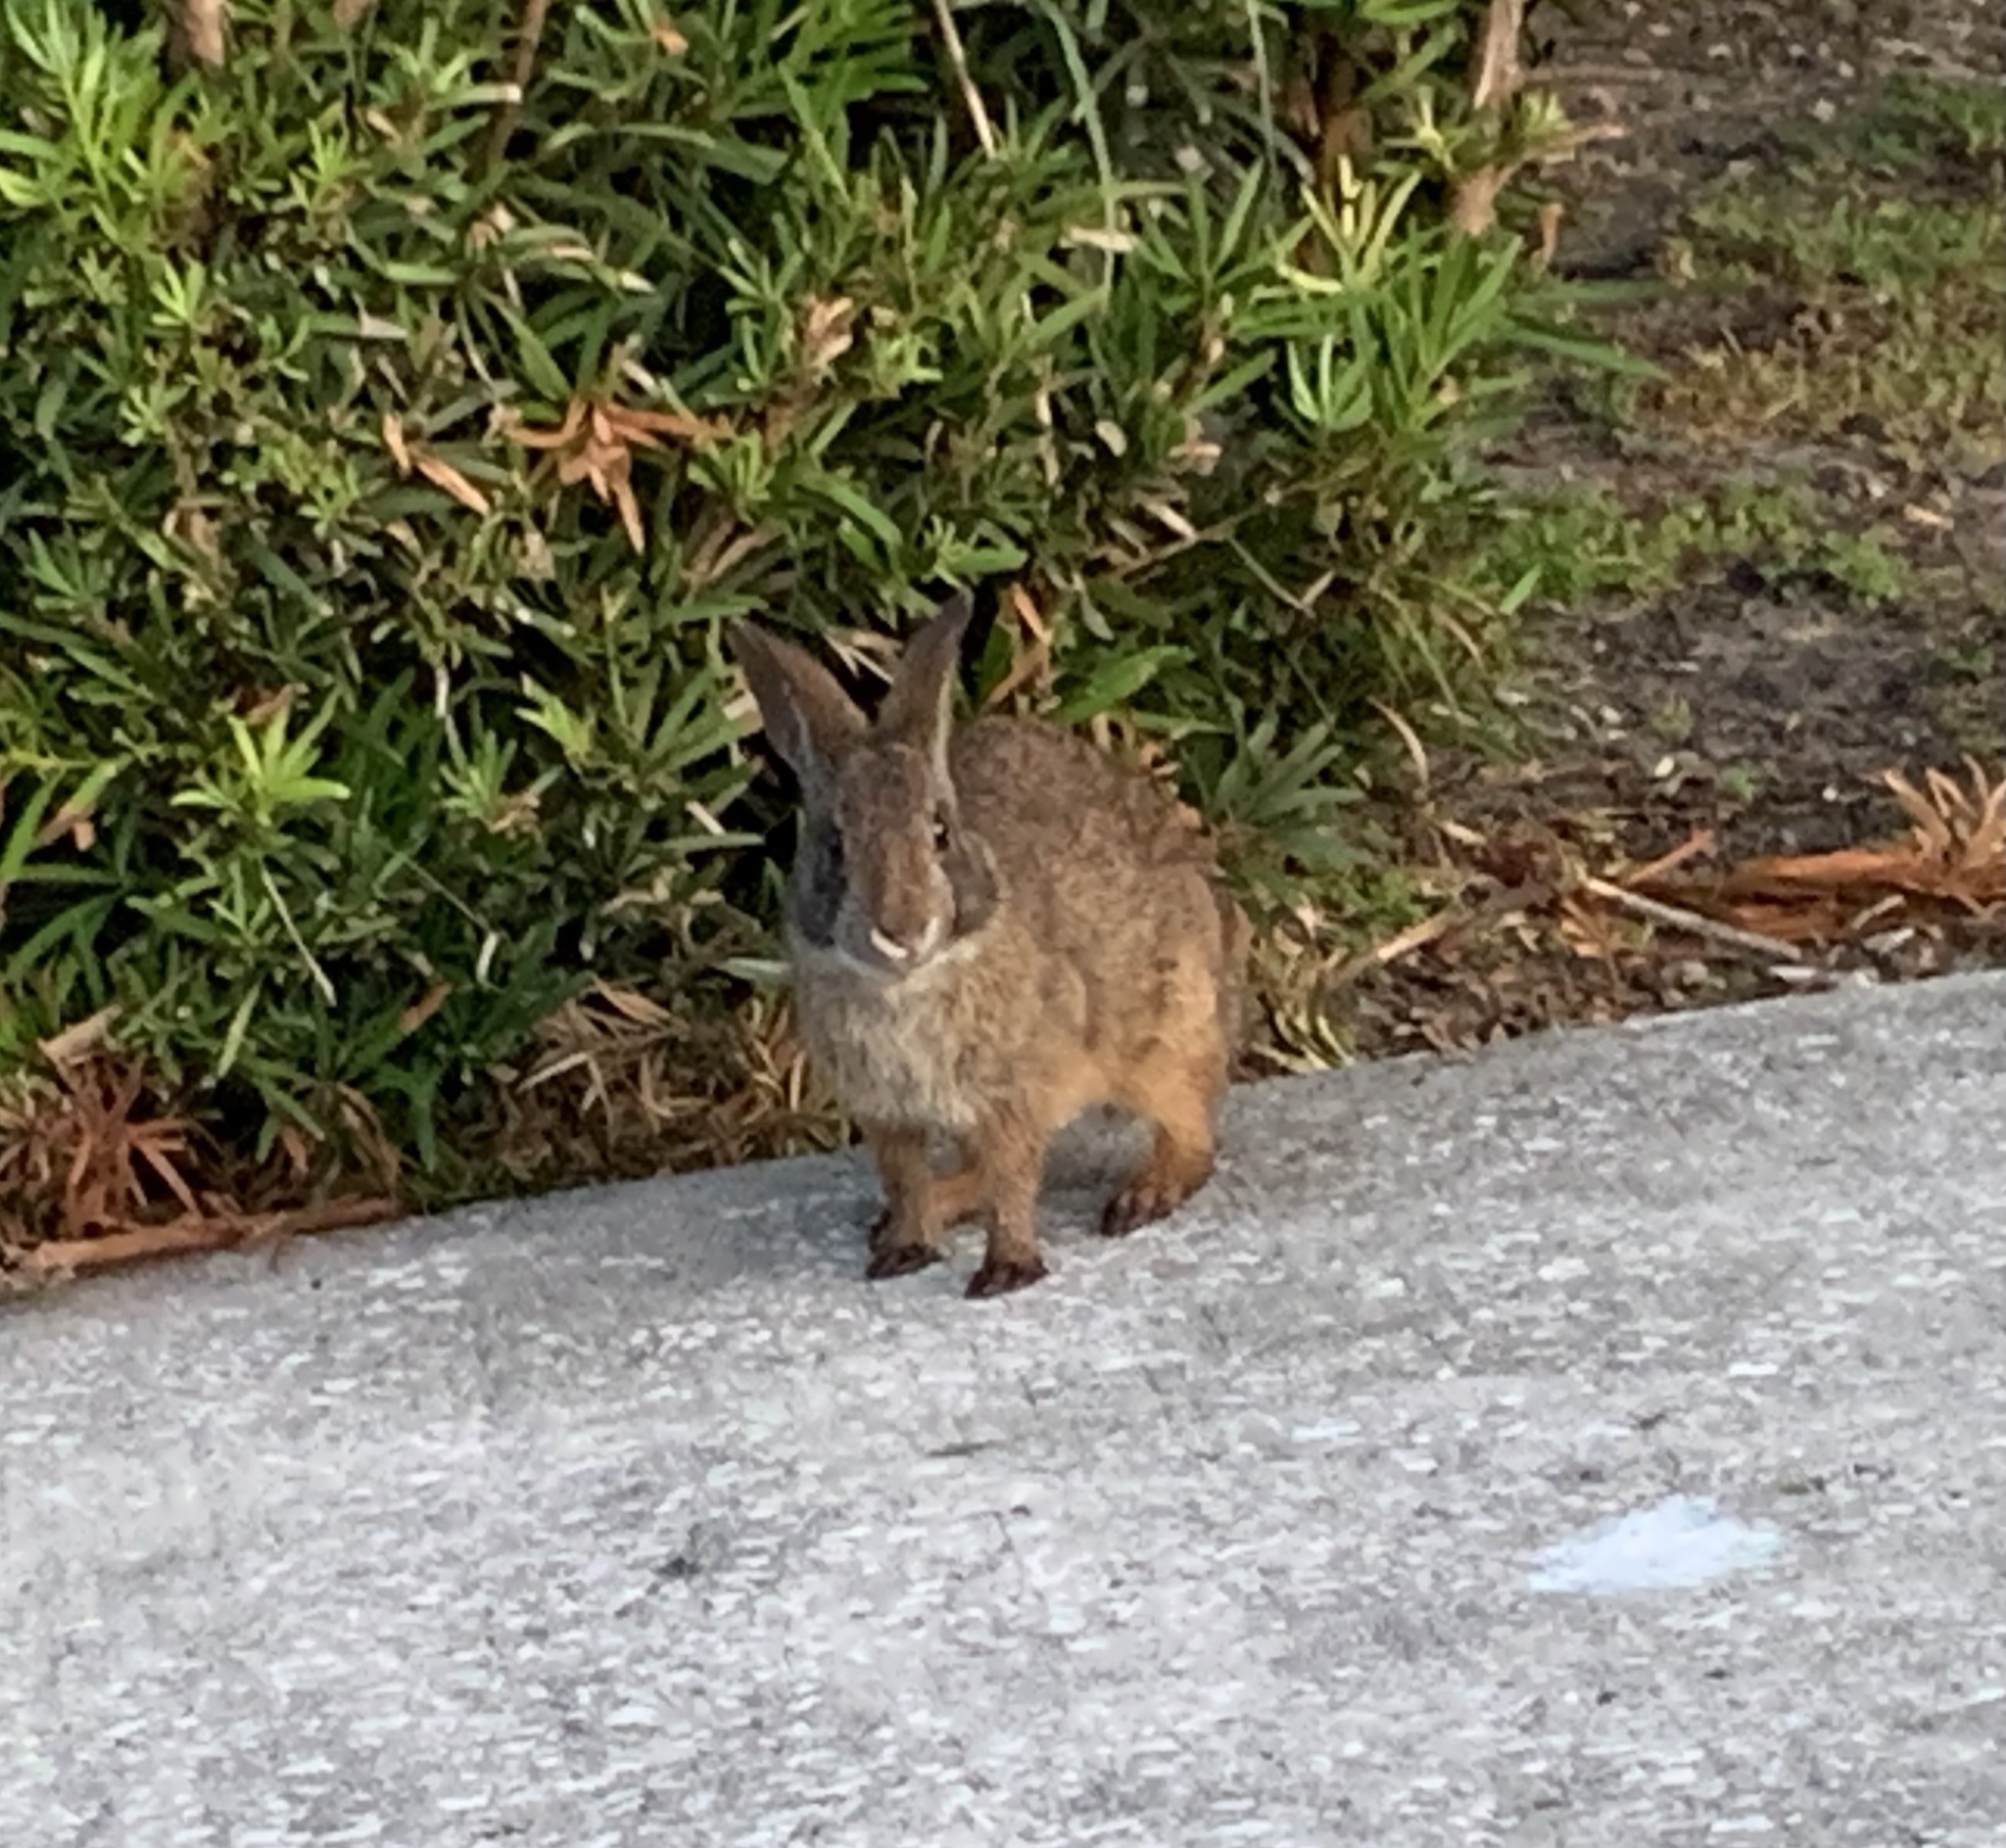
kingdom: Animalia
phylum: Chordata
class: Mammalia
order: Lagomorpha
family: Leporidae
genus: Sylvilagus
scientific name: Sylvilagus palustris
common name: Marsh rabbit
